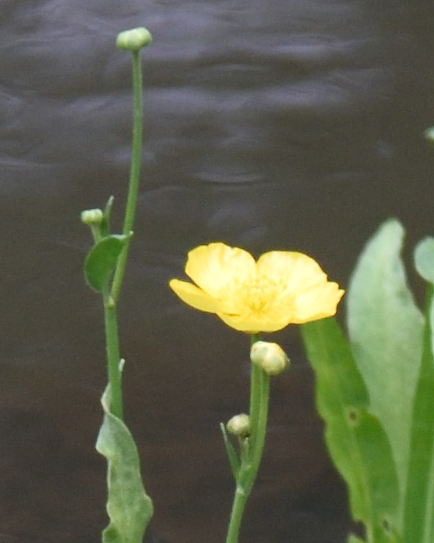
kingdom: Plantae
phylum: Tracheophyta
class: Magnoliopsida
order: Ranunculales
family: Ranunculaceae
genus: Ranunculus
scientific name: Ranunculus lingua
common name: Greater spearwort
